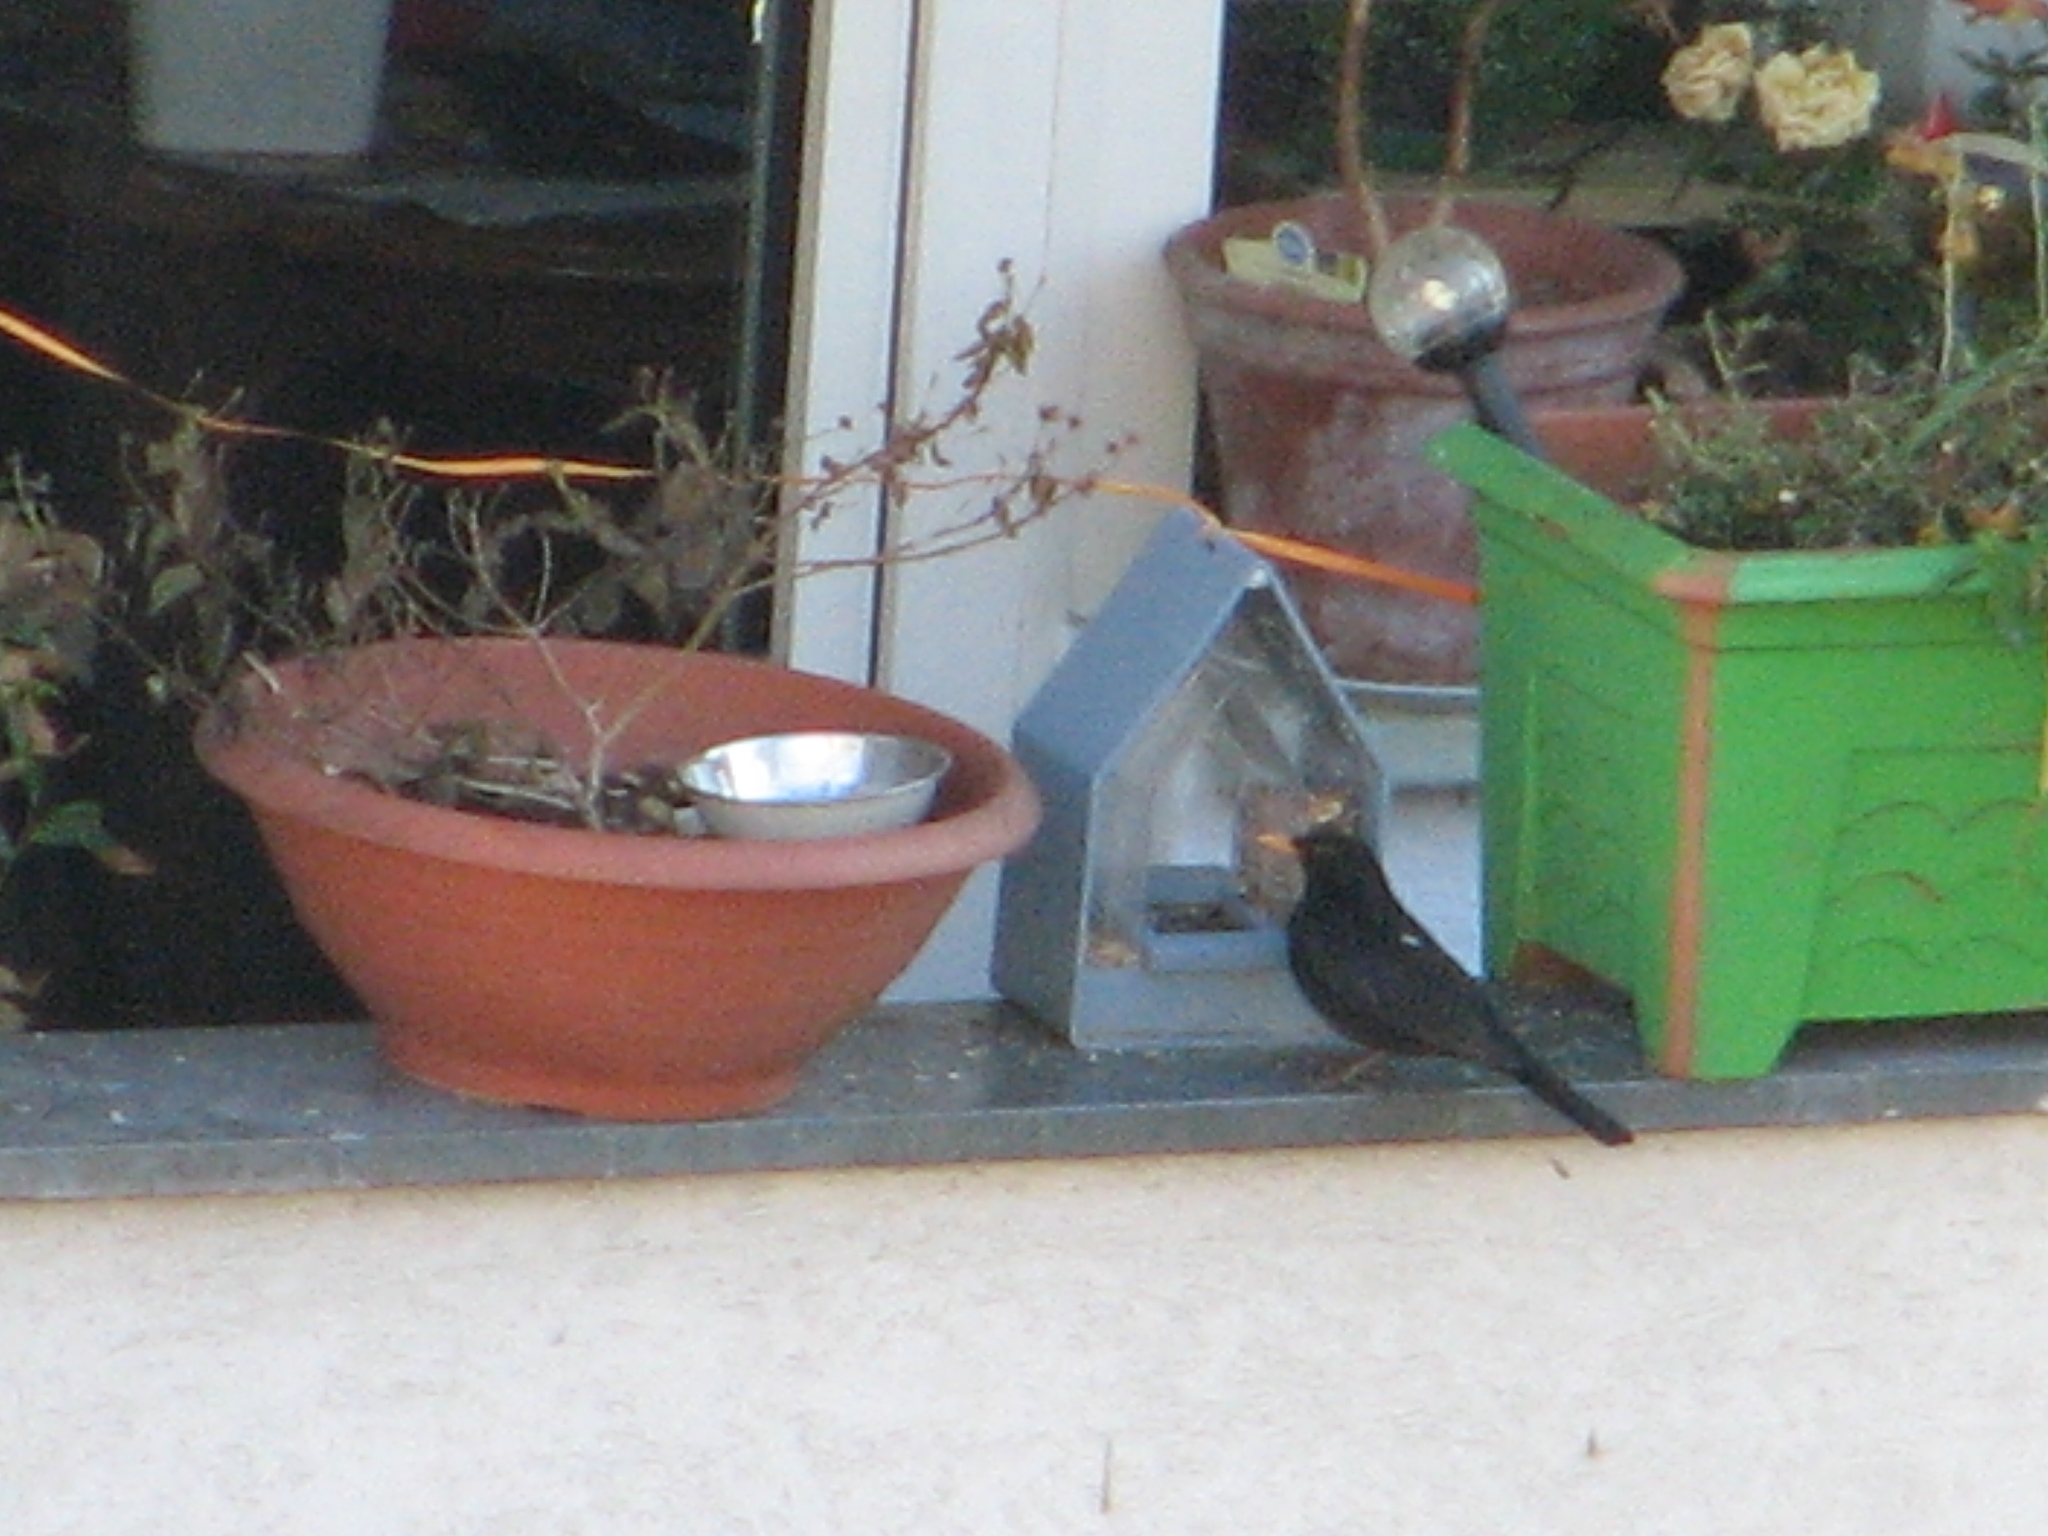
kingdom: Animalia
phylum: Chordata
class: Aves
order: Passeriformes
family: Turdidae
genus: Turdus
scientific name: Turdus merula
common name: Common blackbird
